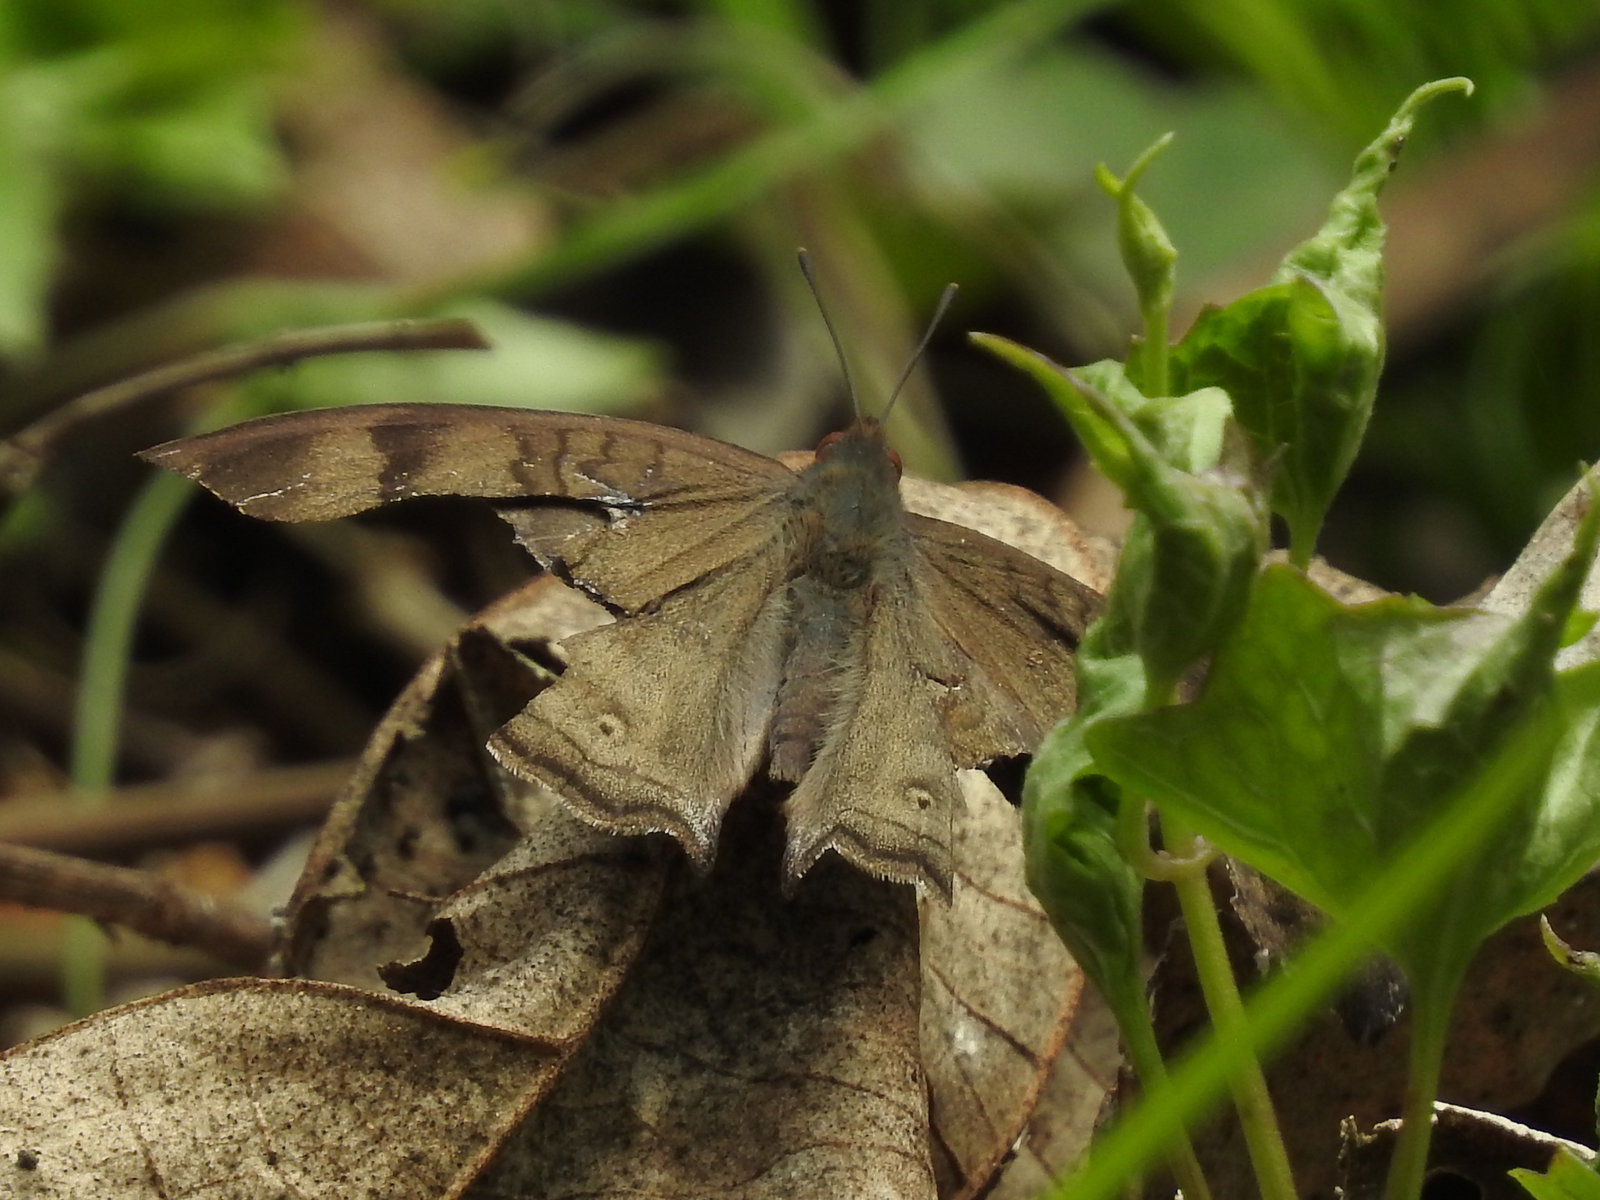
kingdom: Animalia
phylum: Arthropoda
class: Insecta
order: Lepidoptera
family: Nymphalidae
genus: Junonia
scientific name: Junonia iphita
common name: Chocolate pansy
